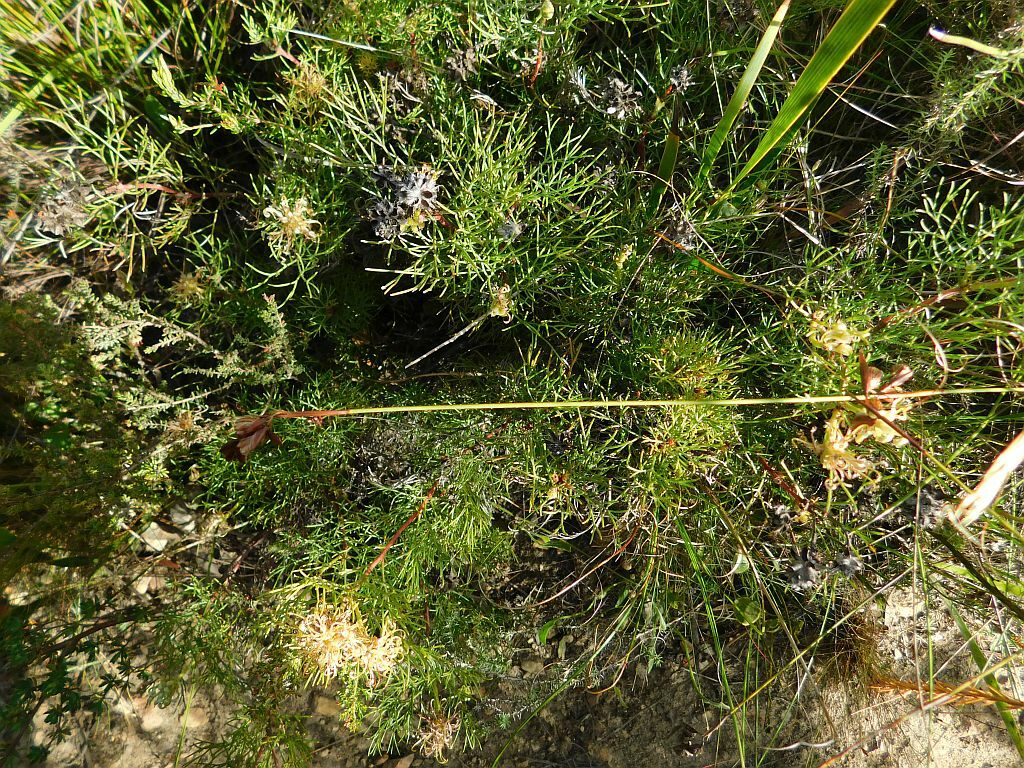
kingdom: Plantae
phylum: Tracheophyta
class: Magnoliopsida
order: Proteales
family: Proteaceae
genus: Serruria
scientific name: Serruria
